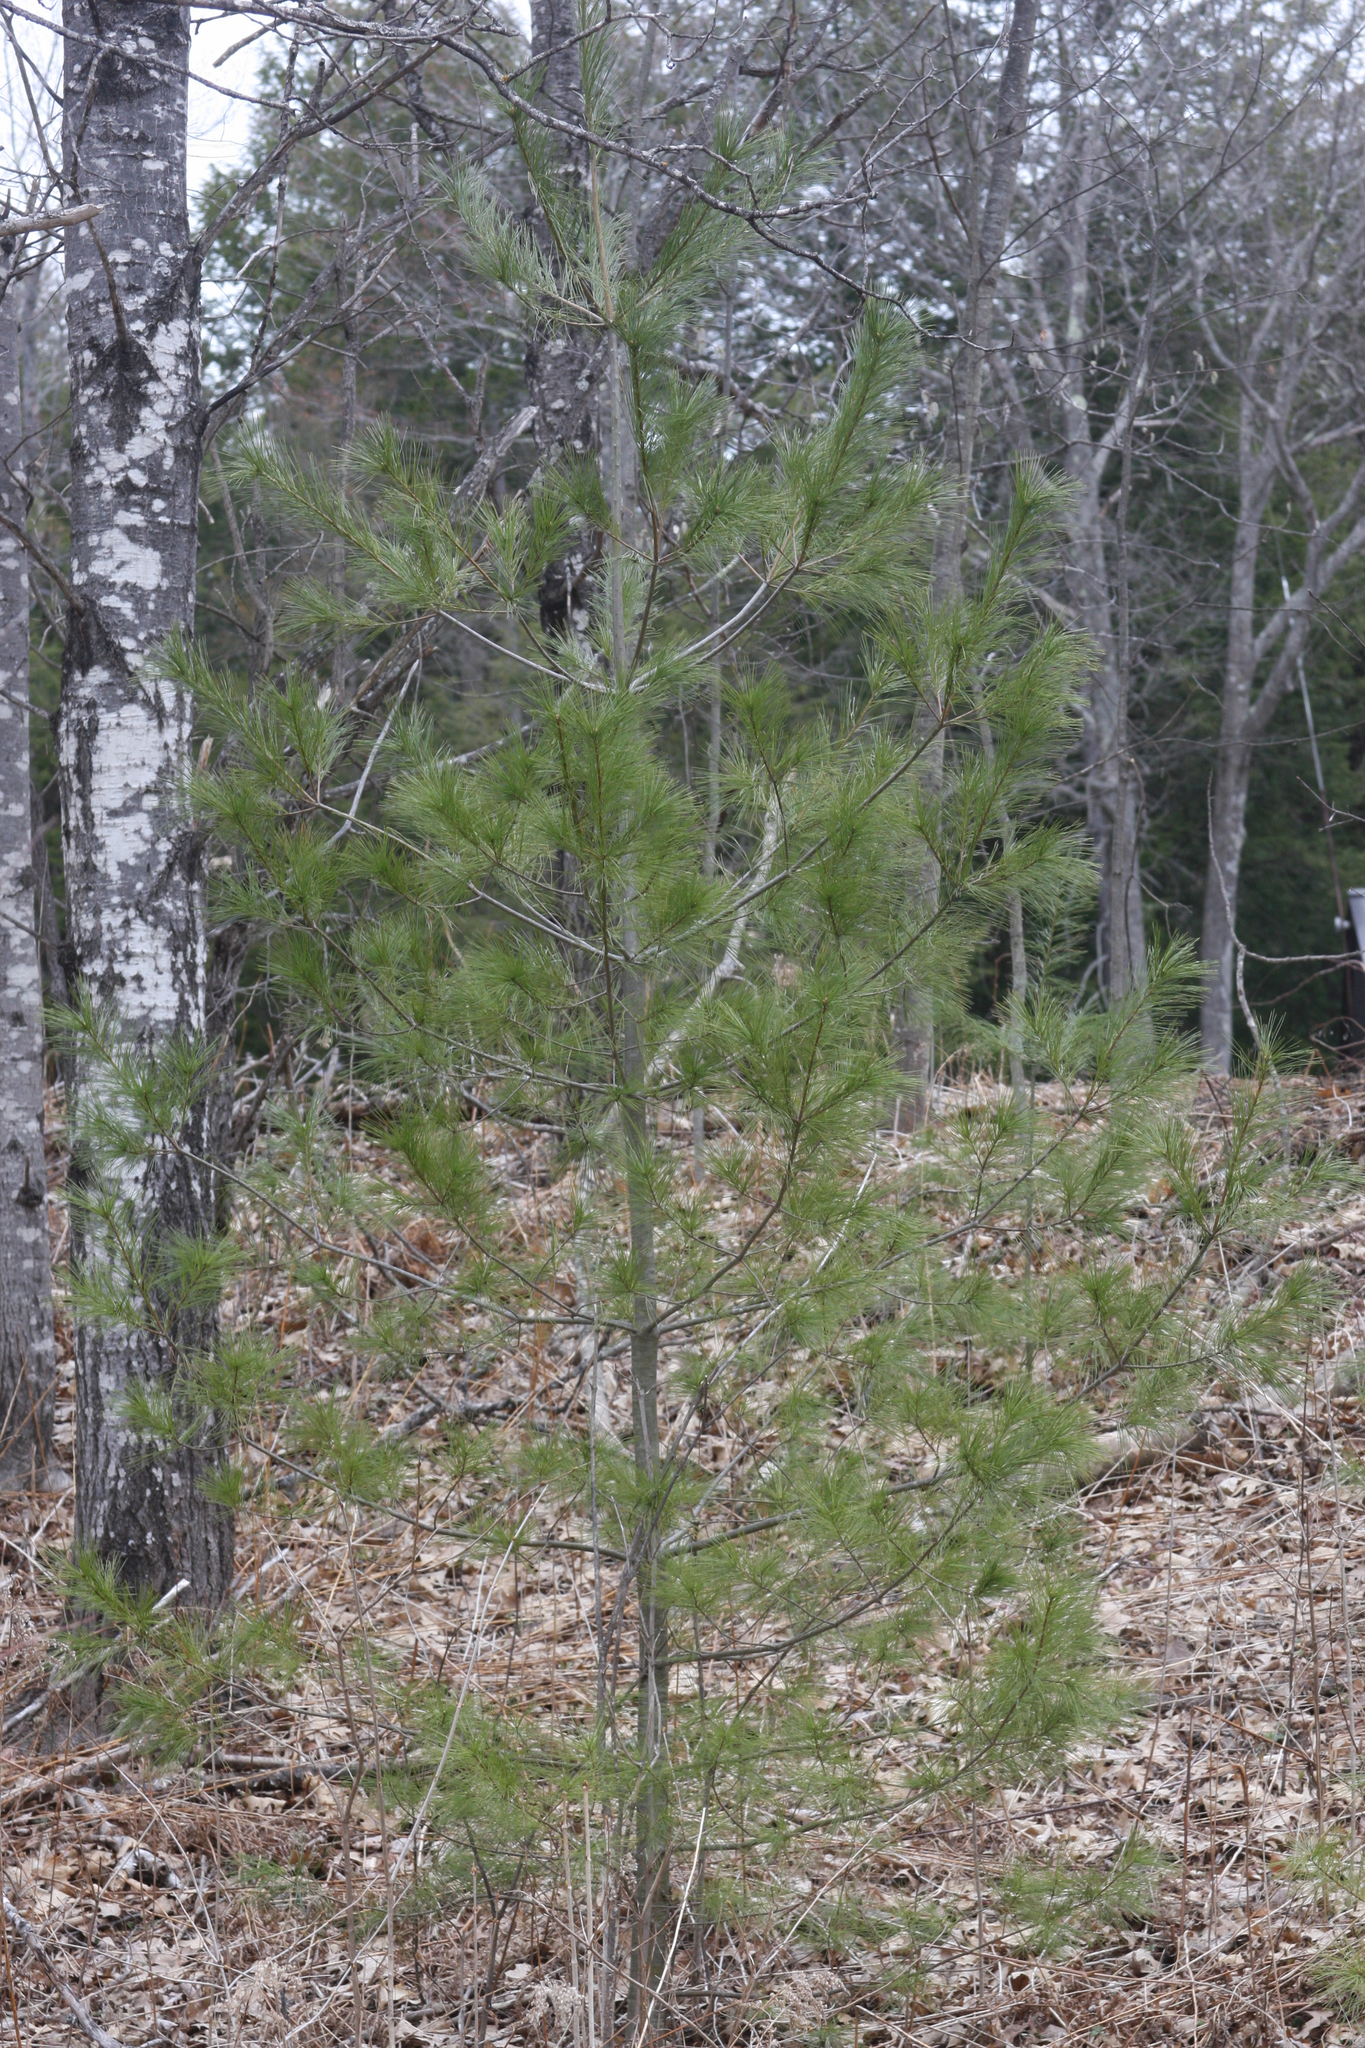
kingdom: Plantae
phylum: Tracheophyta
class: Pinopsida
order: Pinales
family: Pinaceae
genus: Pinus
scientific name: Pinus strobus
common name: Weymouth pine
